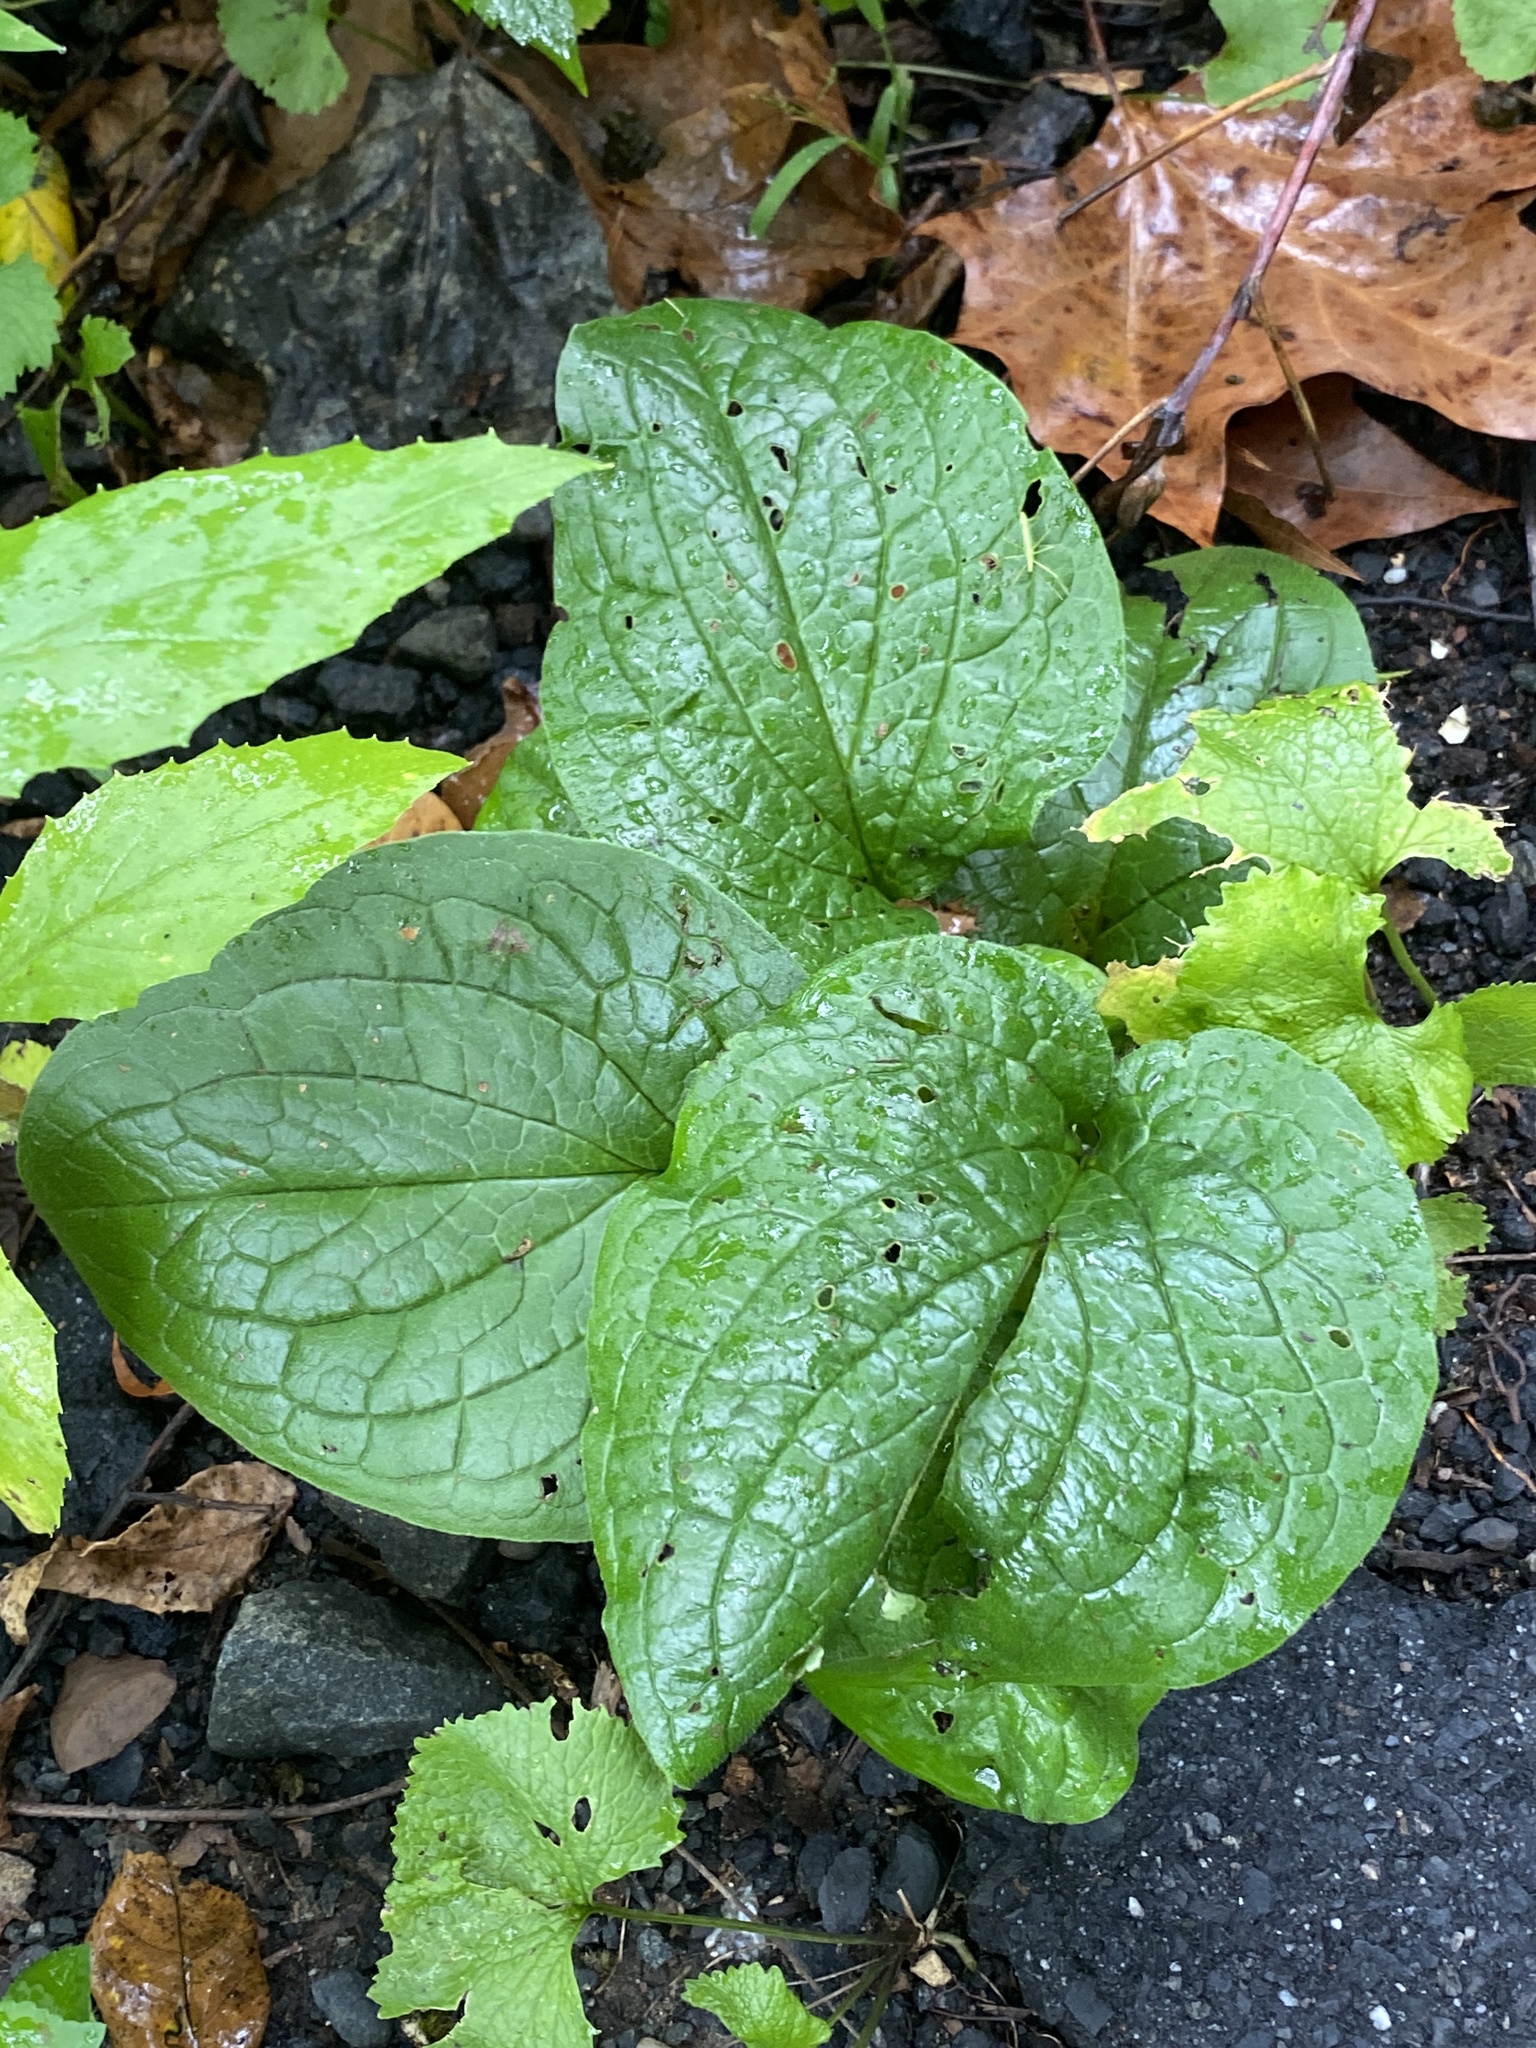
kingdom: Plantae
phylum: Tracheophyta
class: Magnoliopsida
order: Boraginales
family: Boraginaceae
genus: Hackelia
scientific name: Hackelia virginiana
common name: Beggar's-lice
